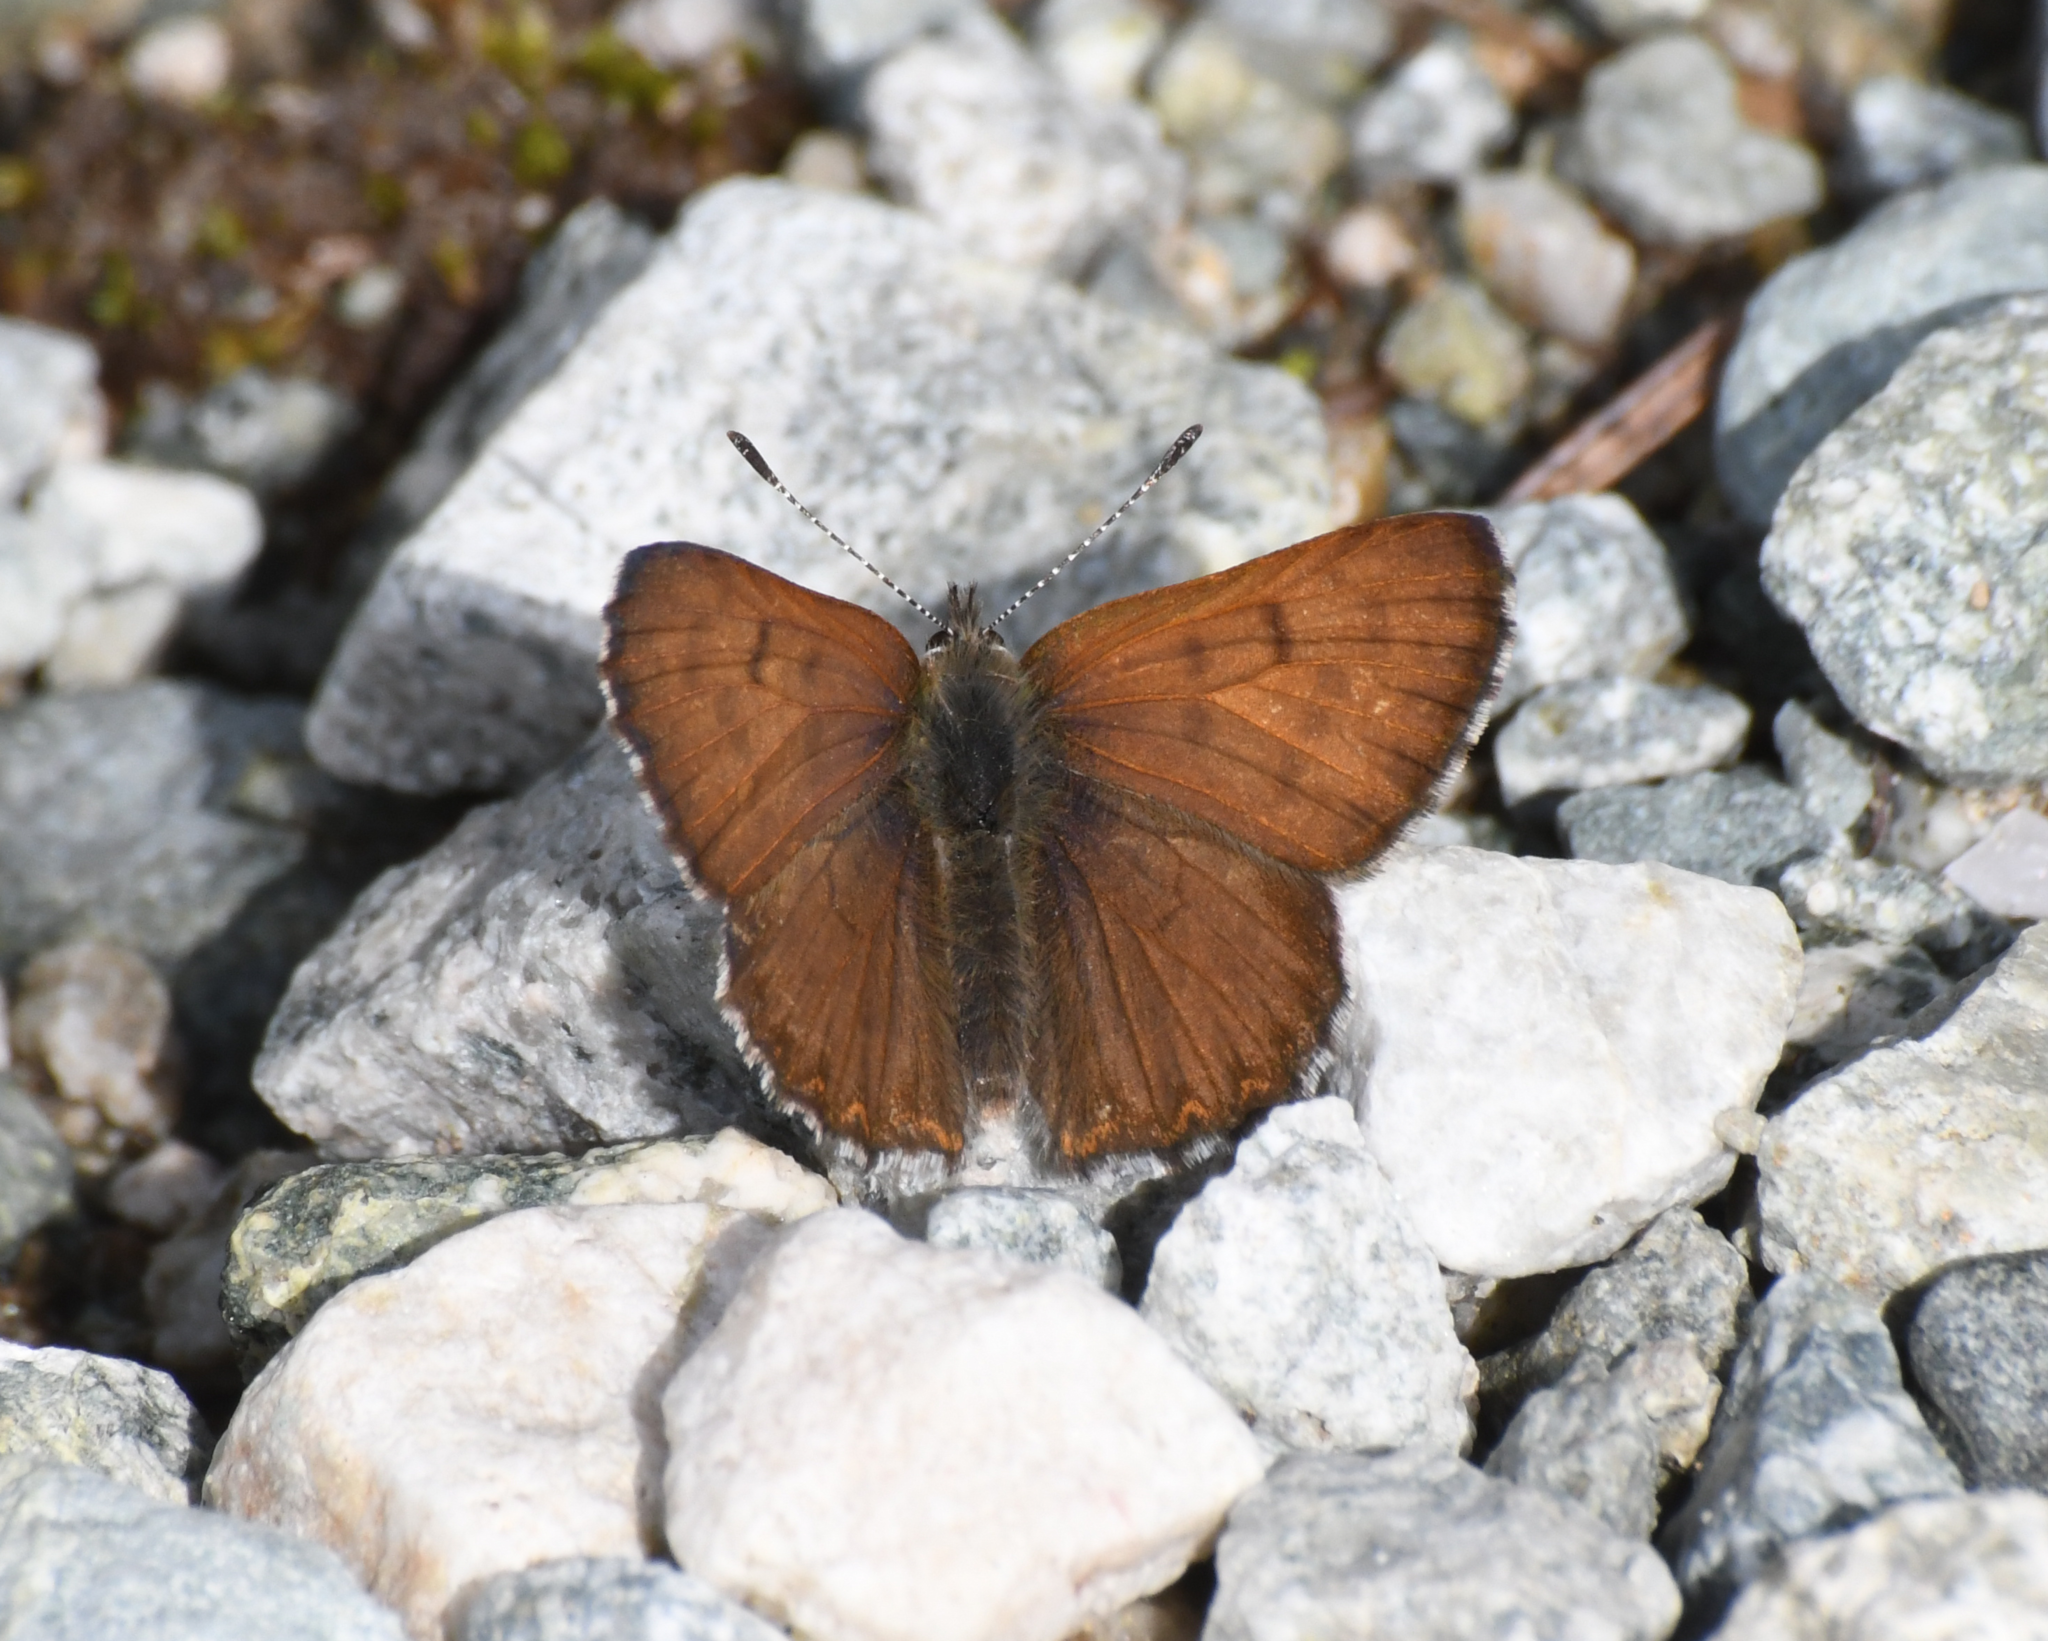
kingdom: Animalia
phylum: Arthropoda
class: Insecta
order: Lepidoptera
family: Lycaenidae
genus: Tharsalea
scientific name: Tharsalea mariposa
